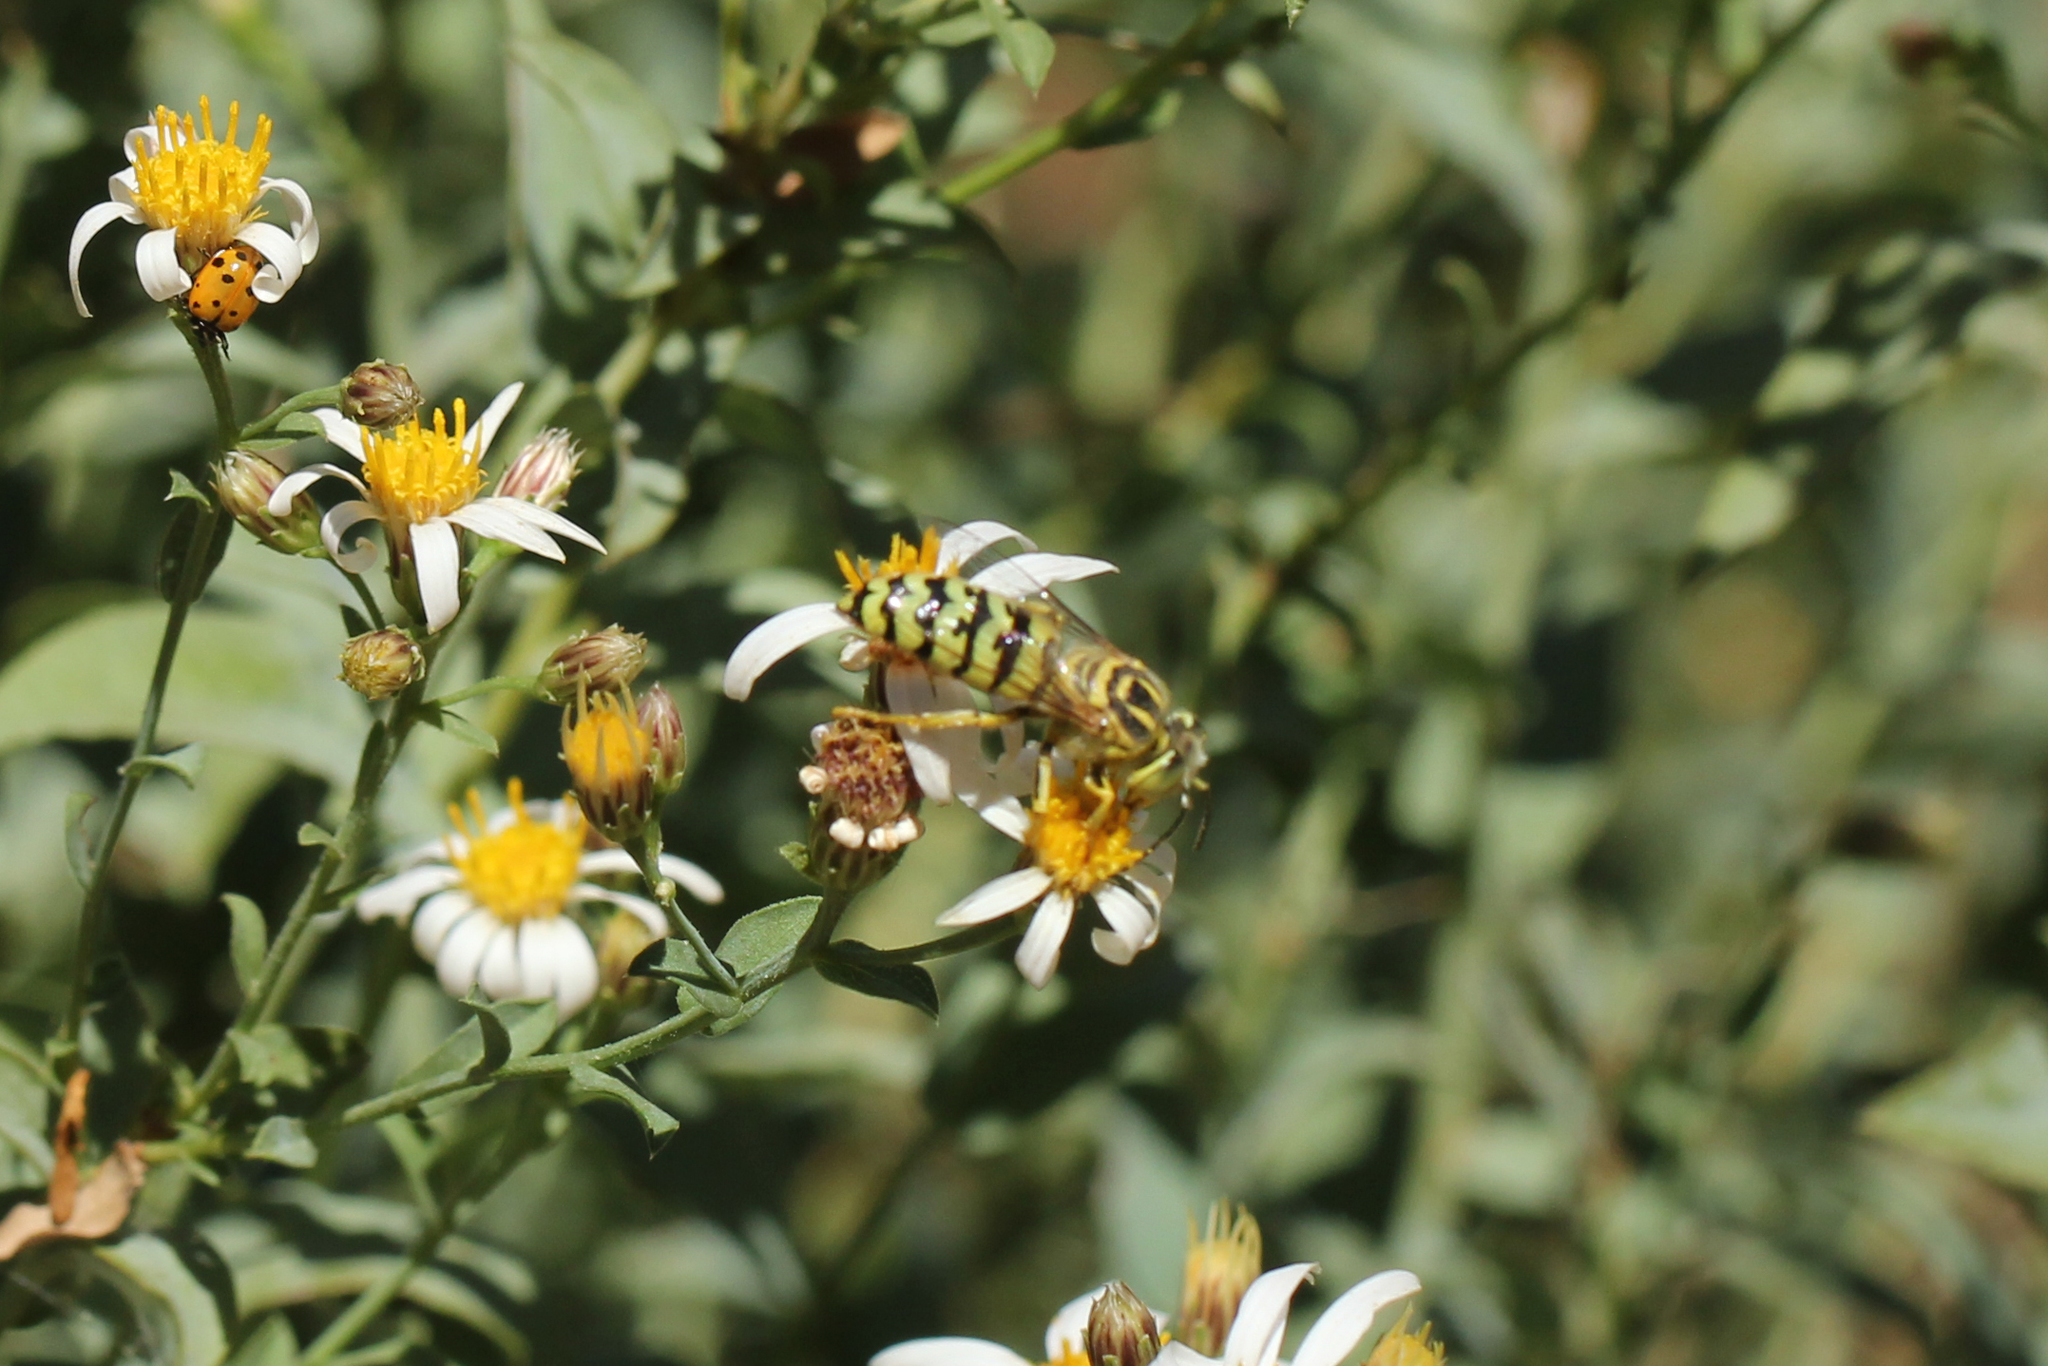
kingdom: Animalia
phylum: Arthropoda
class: Insecta
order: Hymenoptera
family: Crabronidae
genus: Bembix
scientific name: Bembix dentilabris
